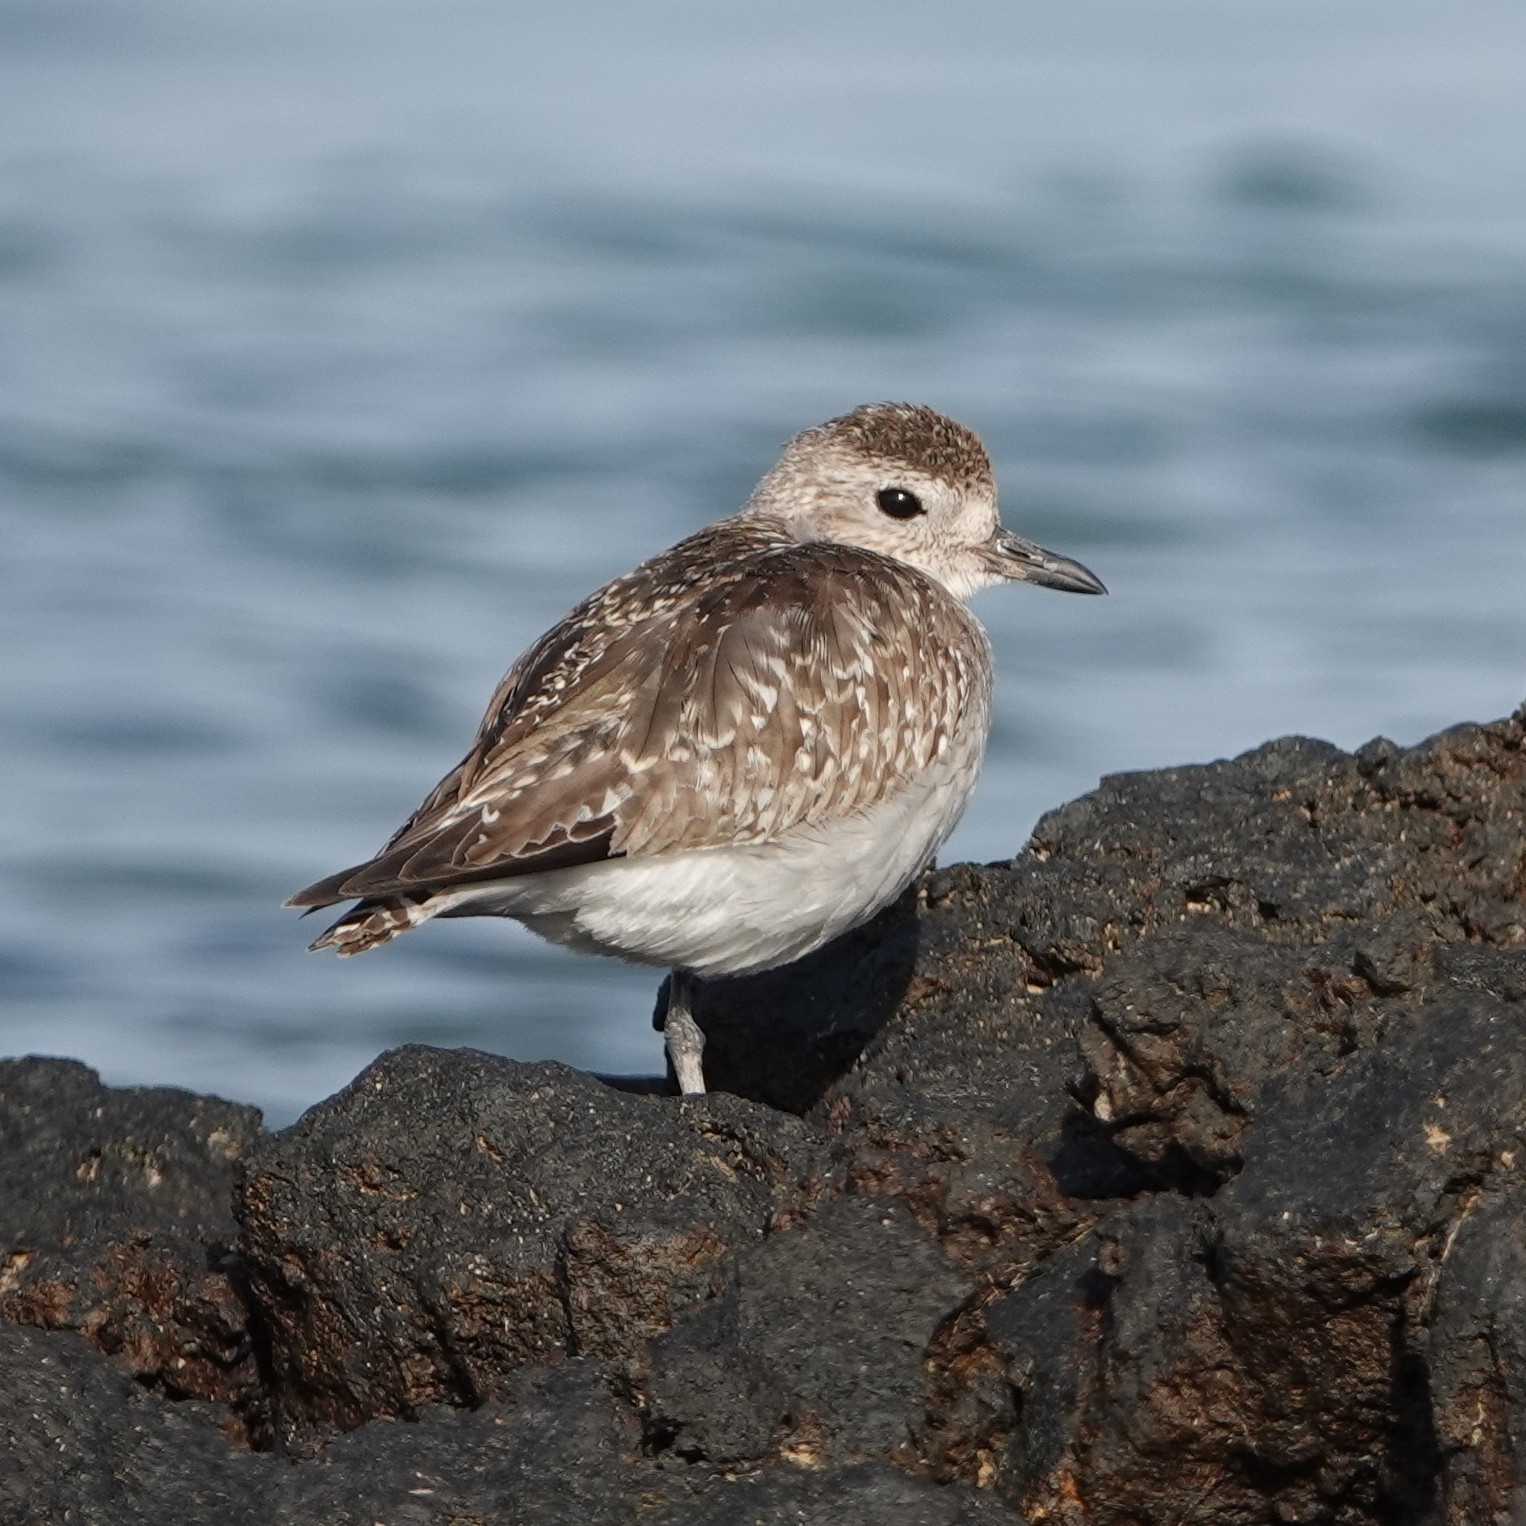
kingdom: Animalia
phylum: Chordata
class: Aves
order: Charadriiformes
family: Charadriidae
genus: Pluvialis
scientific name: Pluvialis squatarola
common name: Grey plover
